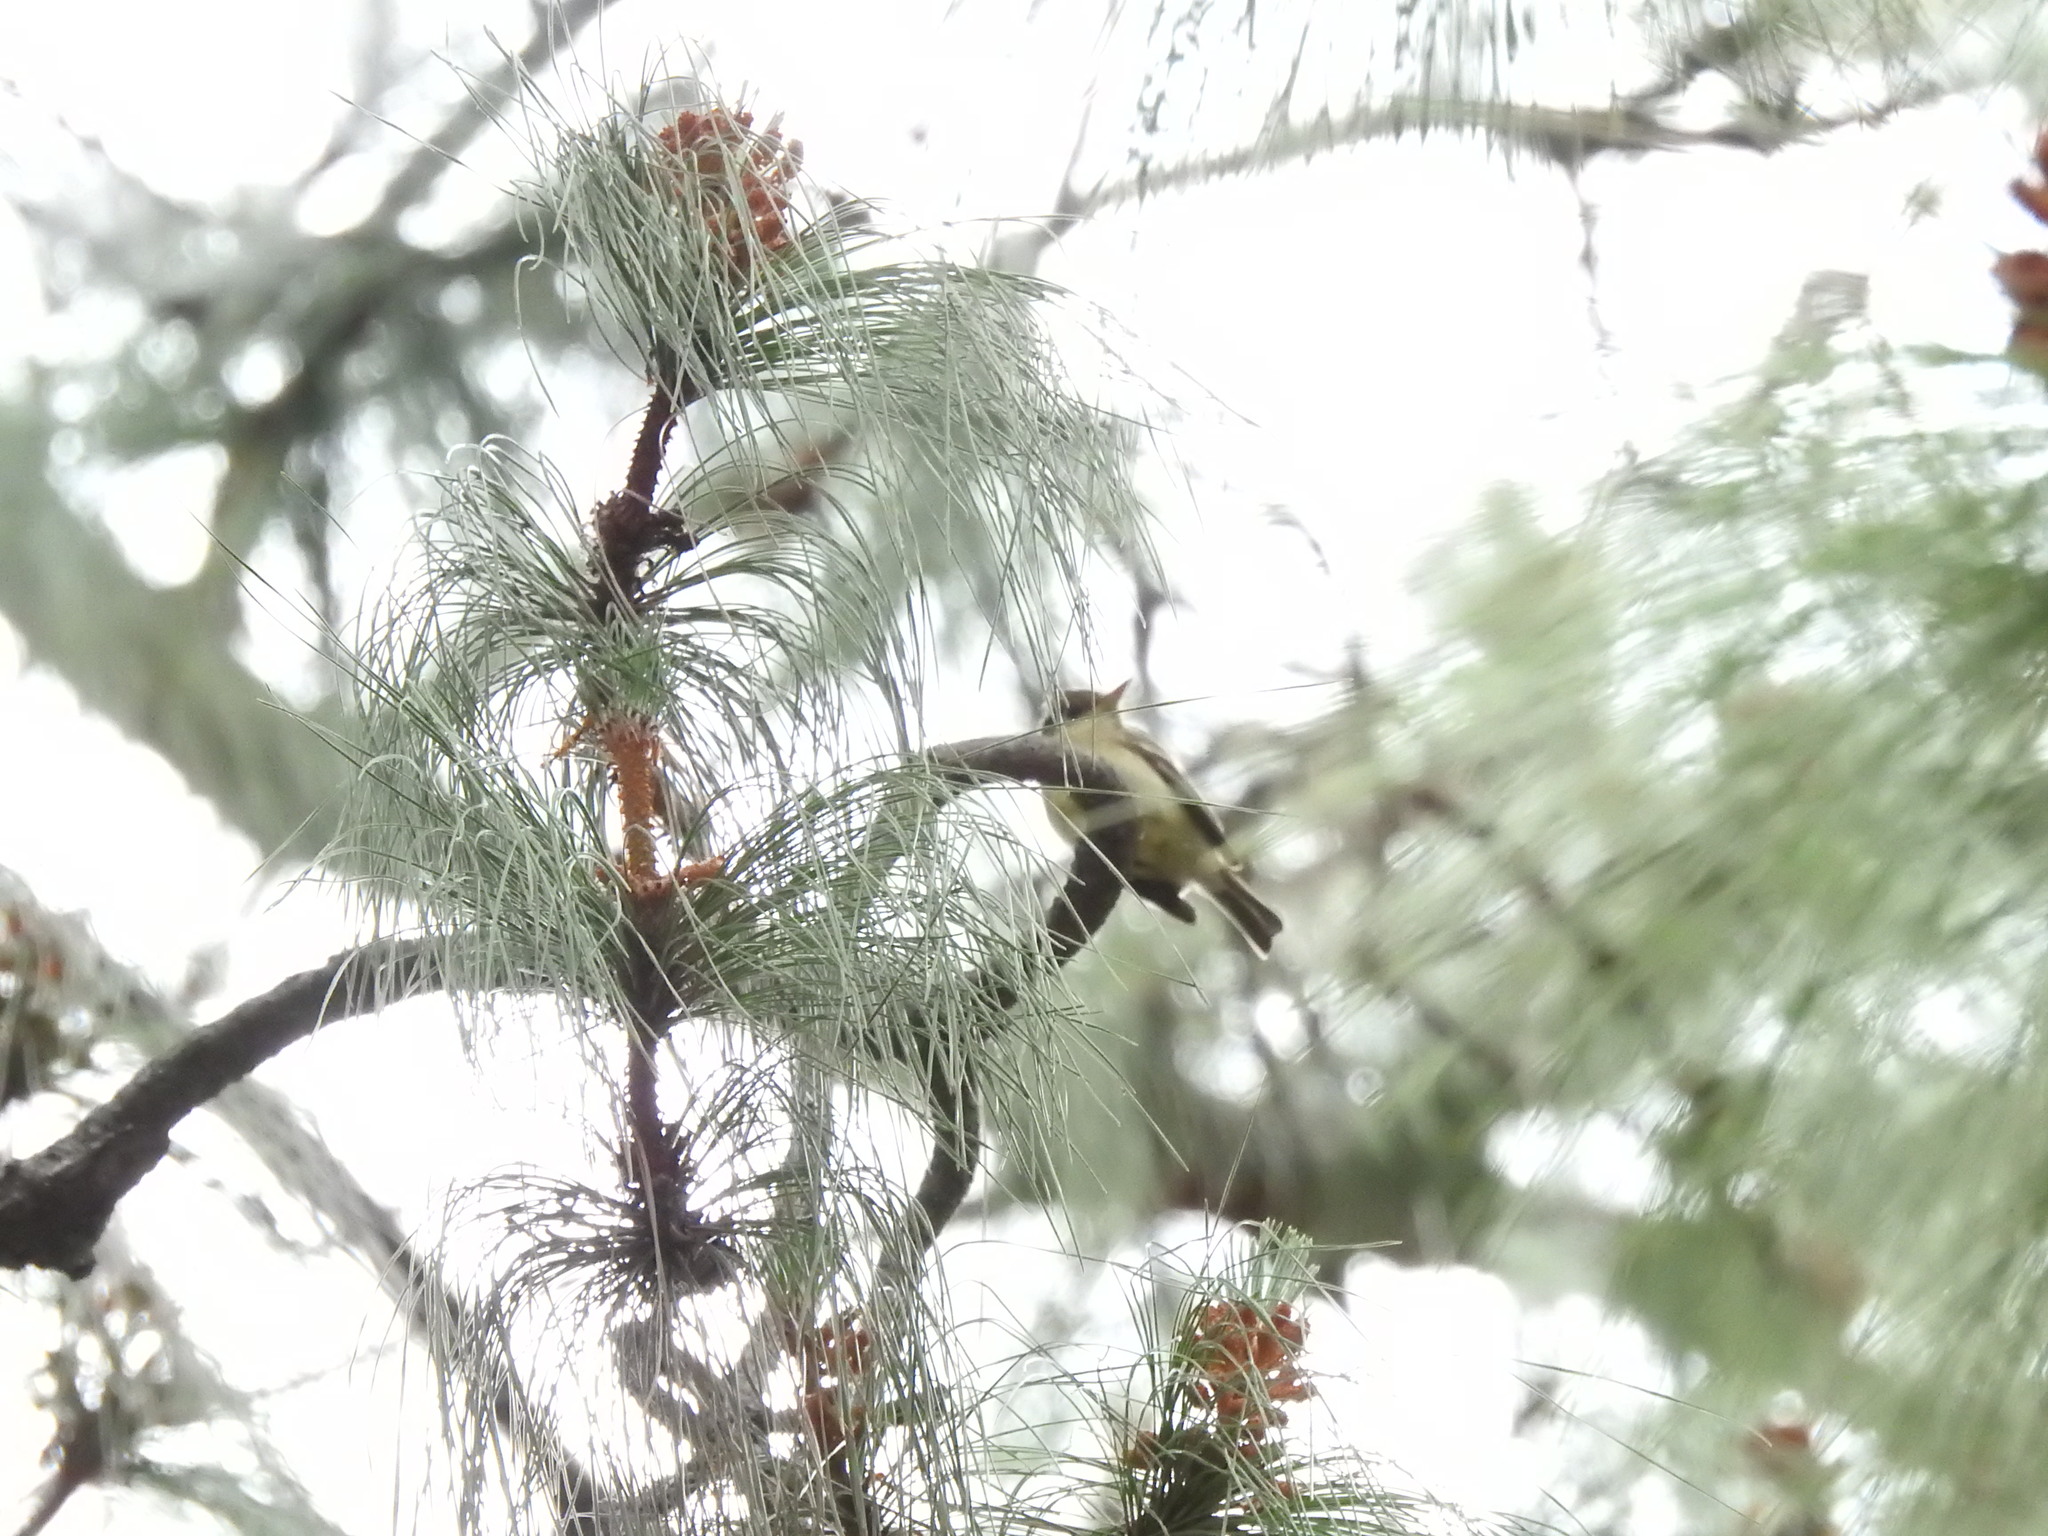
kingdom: Animalia
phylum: Chordata
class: Aves
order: Passeriformes
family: Tyrannidae
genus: Empidonax
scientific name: Empidonax difficilis
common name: Pacific-slope flycatcher
